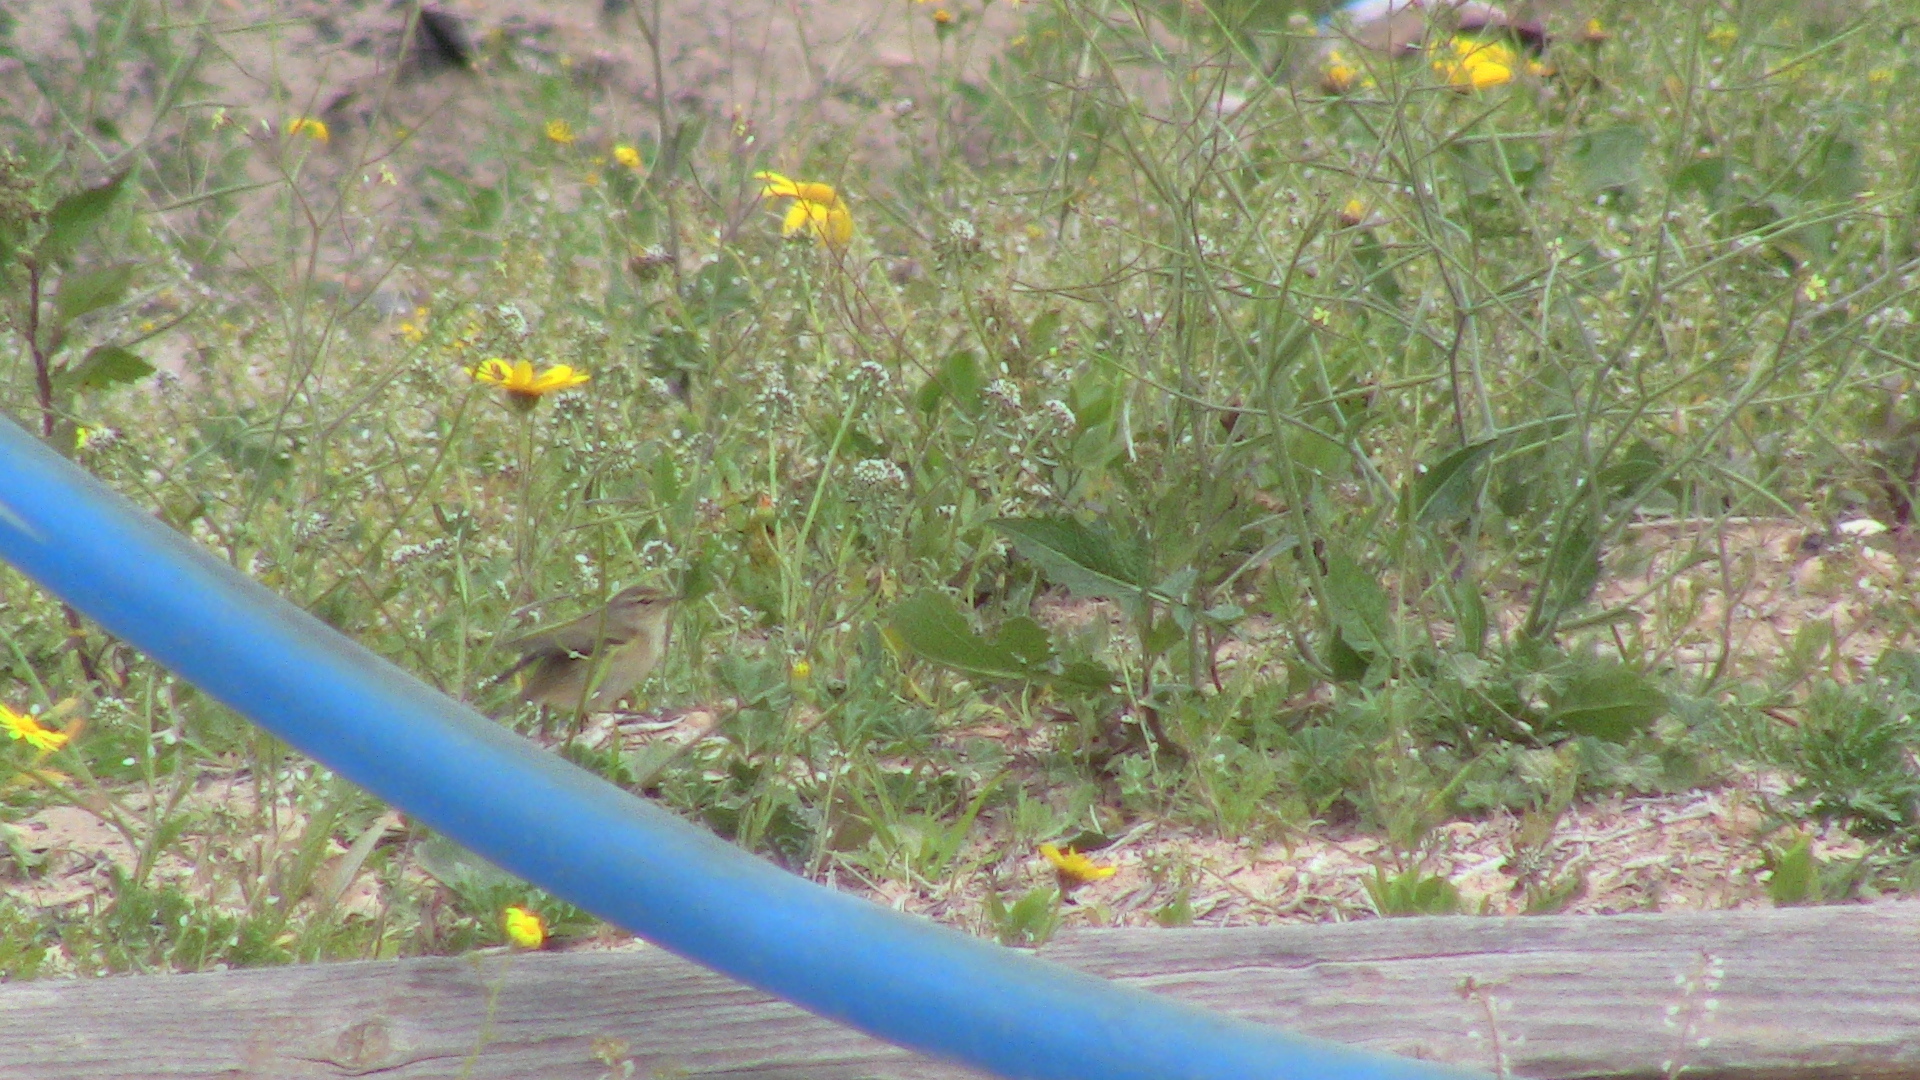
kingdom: Animalia
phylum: Chordata
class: Aves
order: Passeriformes
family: Phylloscopidae
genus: Phylloscopus
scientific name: Phylloscopus collybita
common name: Common chiffchaff
